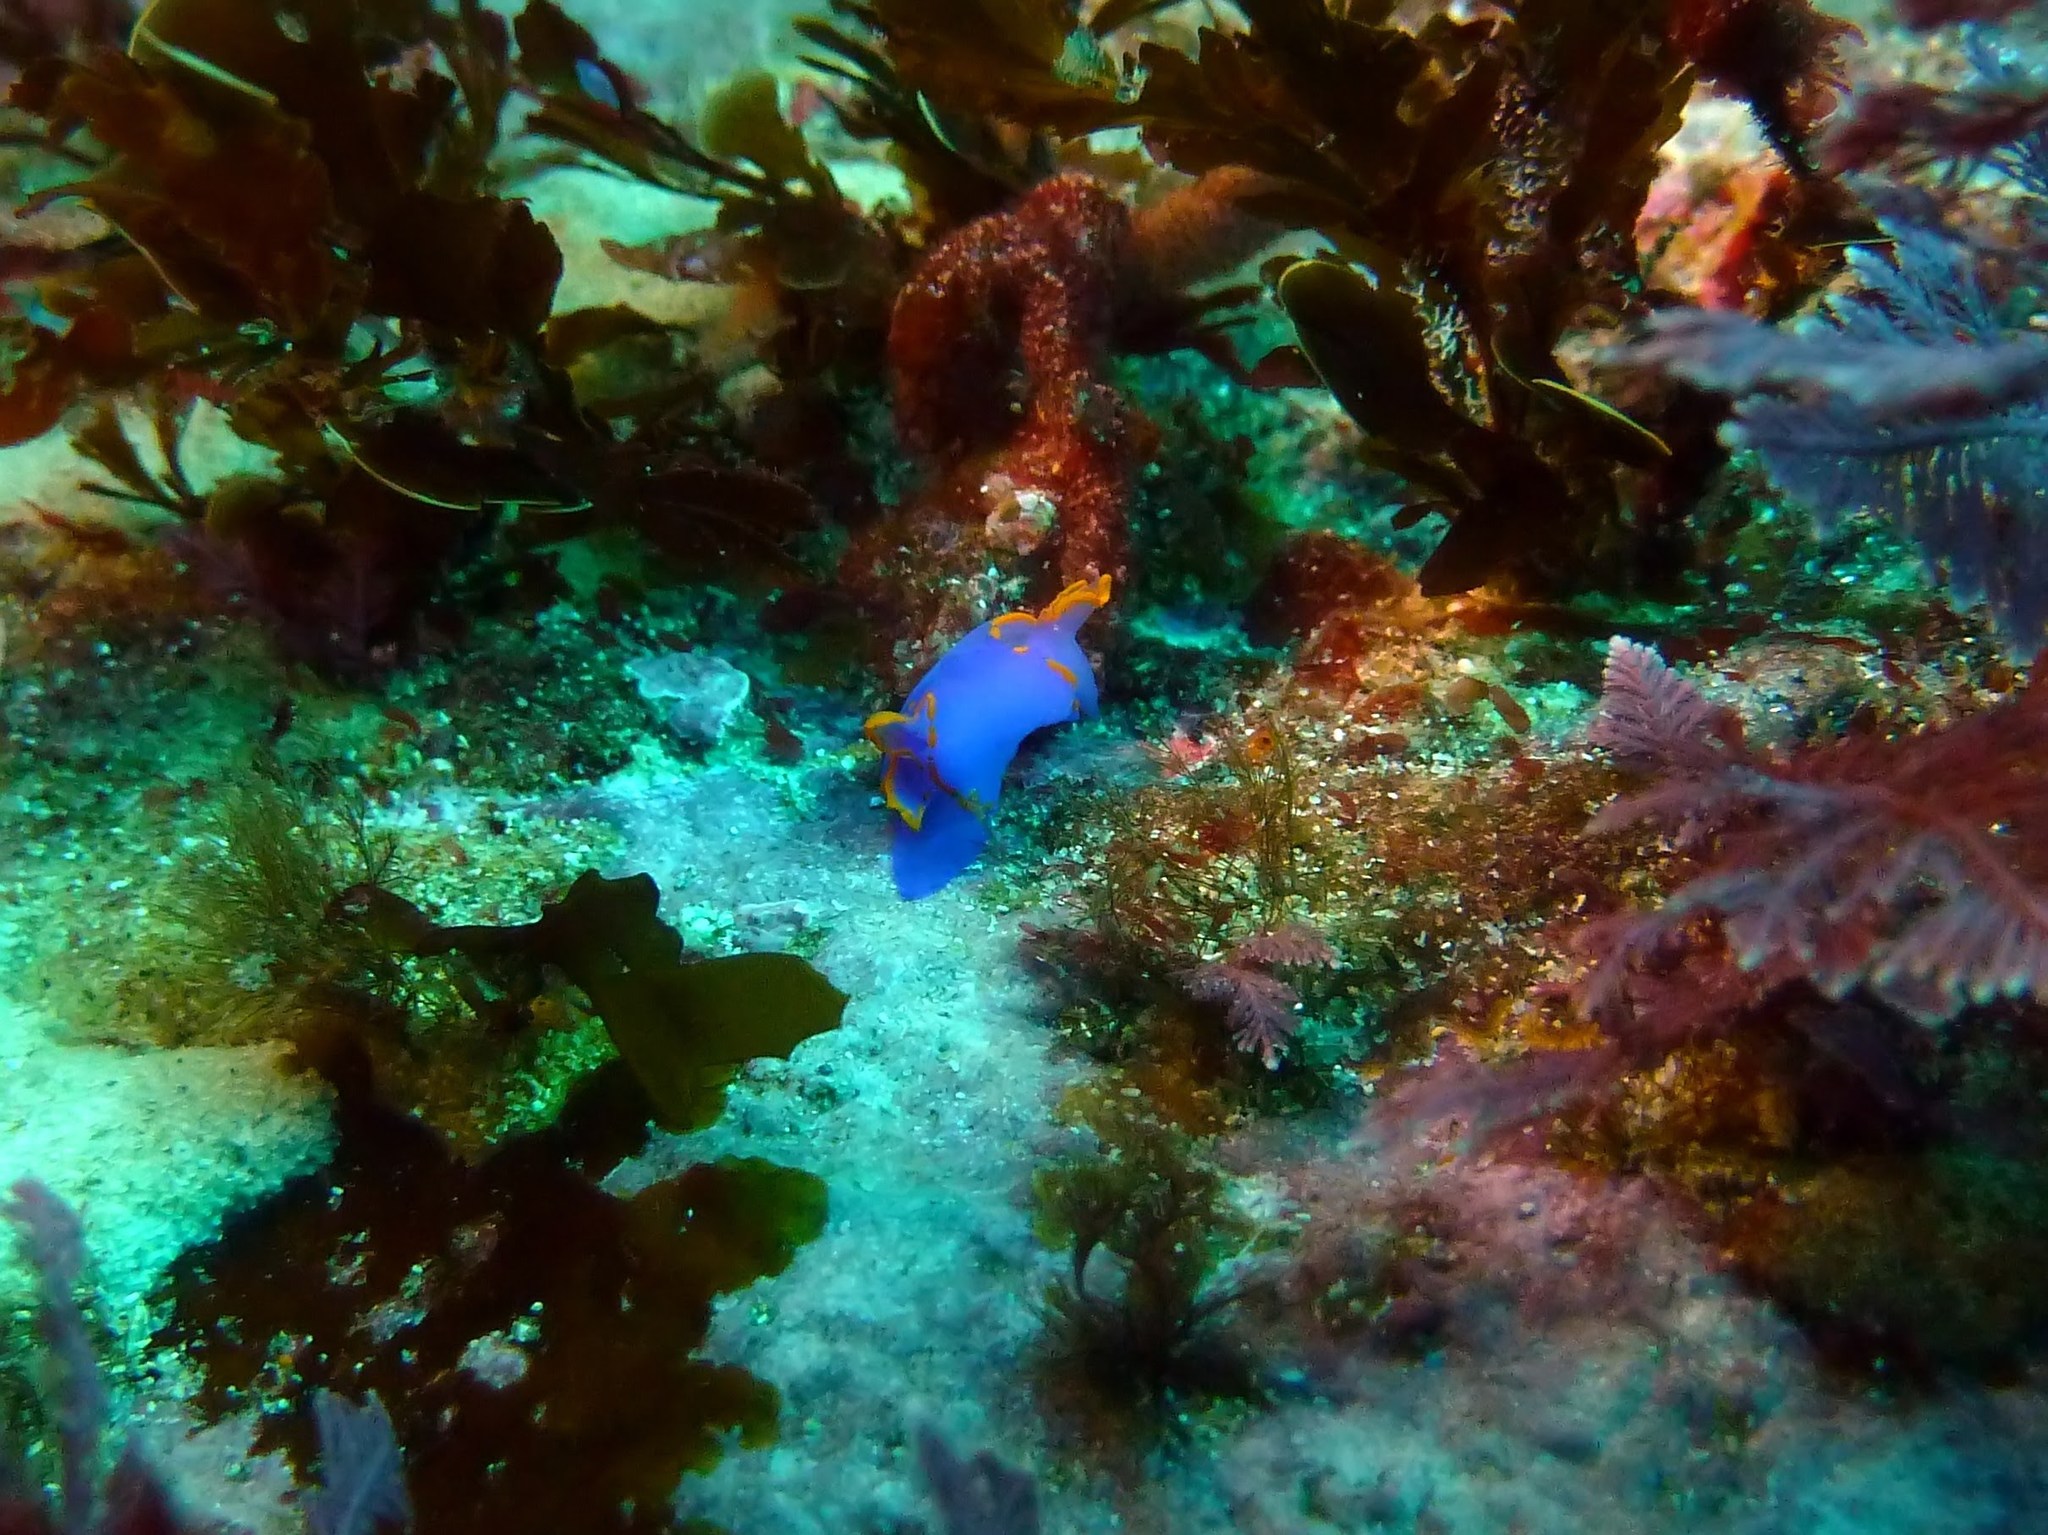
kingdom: Animalia
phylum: Mollusca
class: Gastropoda
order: Cephalaspidea
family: Gastropteridae
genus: Sagaminopteron
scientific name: Sagaminopteron ornatum
